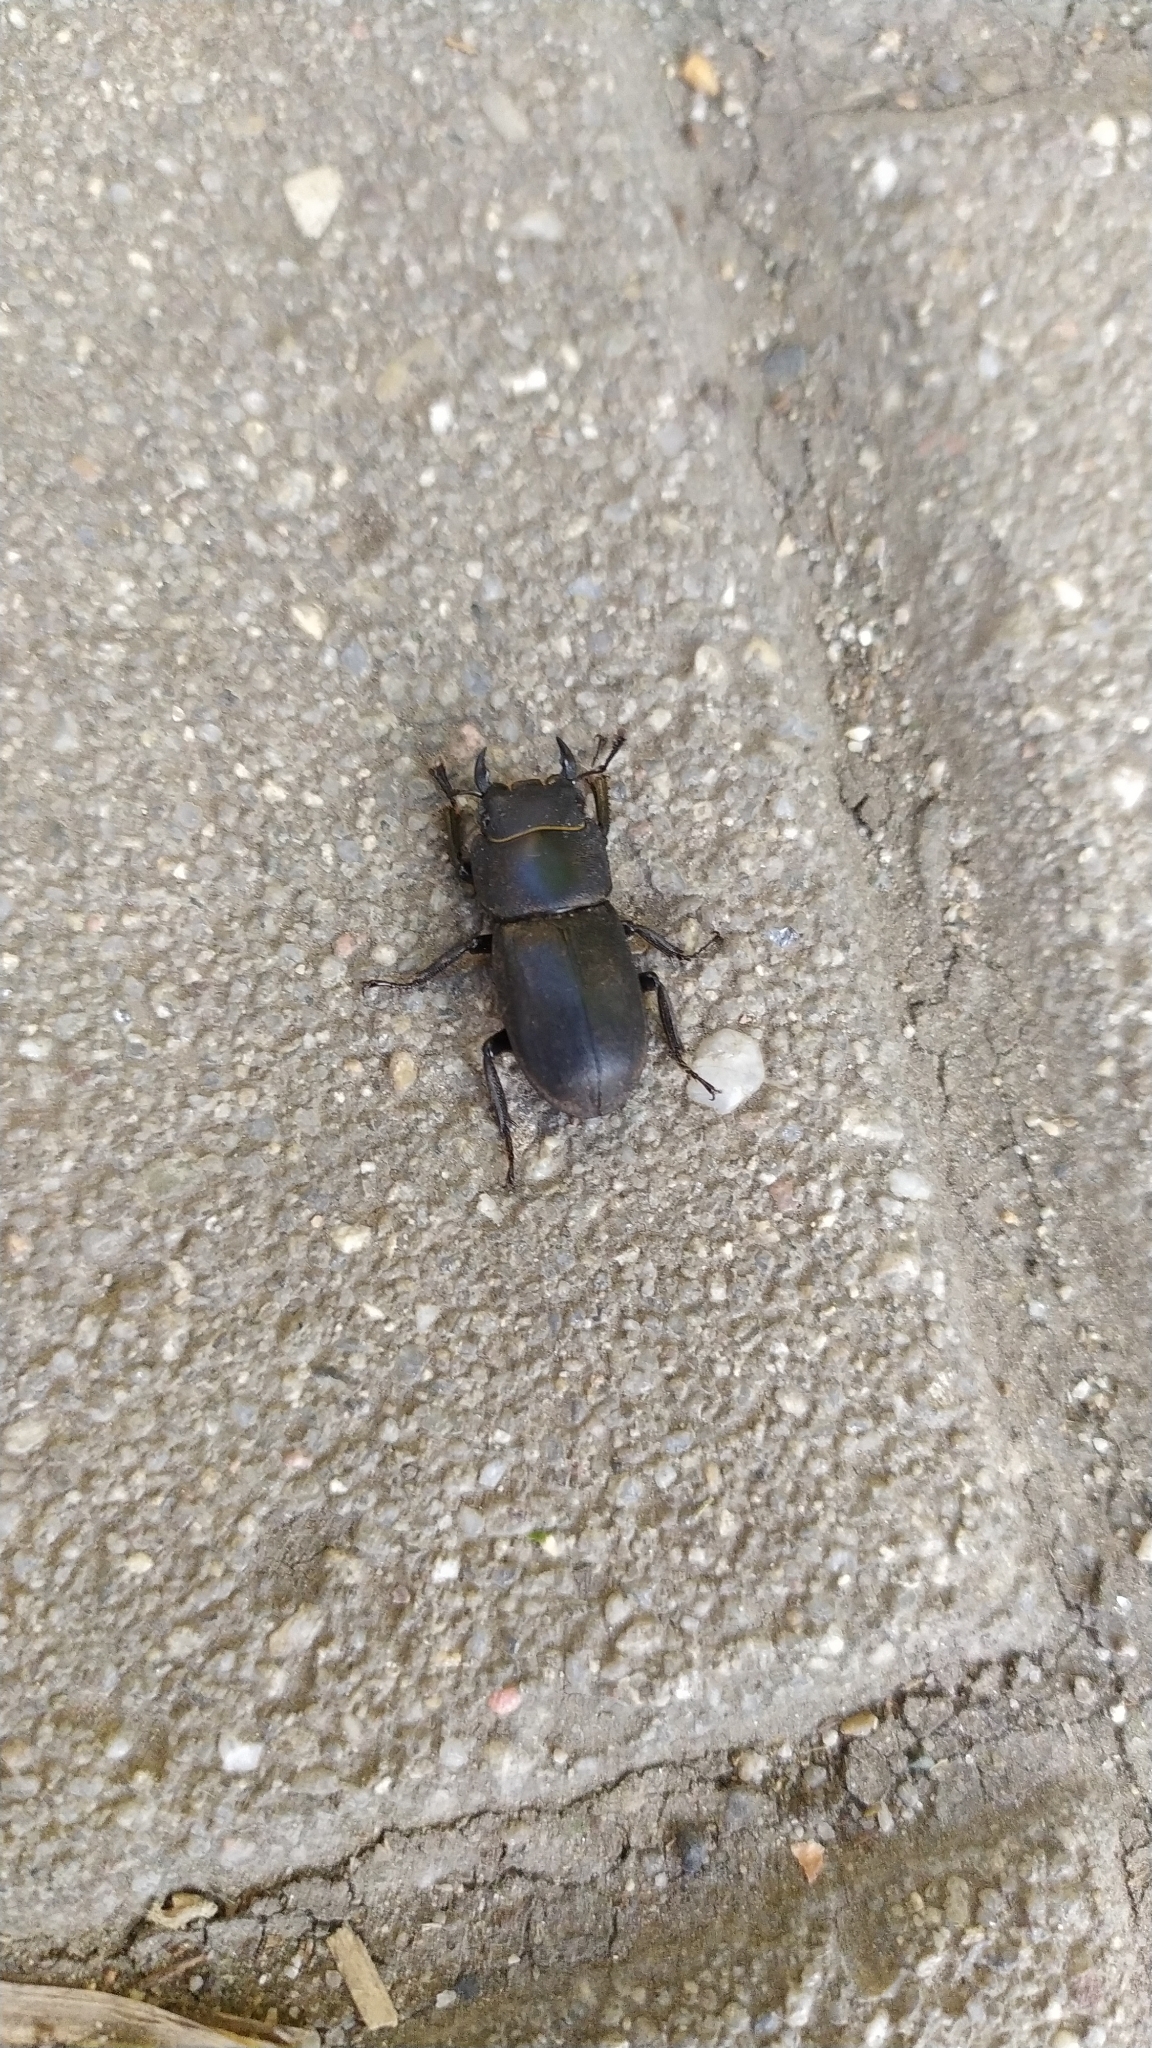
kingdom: Animalia
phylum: Arthropoda
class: Insecta
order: Coleoptera
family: Lucanidae
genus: Dorcus
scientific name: Dorcus parallelipipedus
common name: Lesser stag beetle
